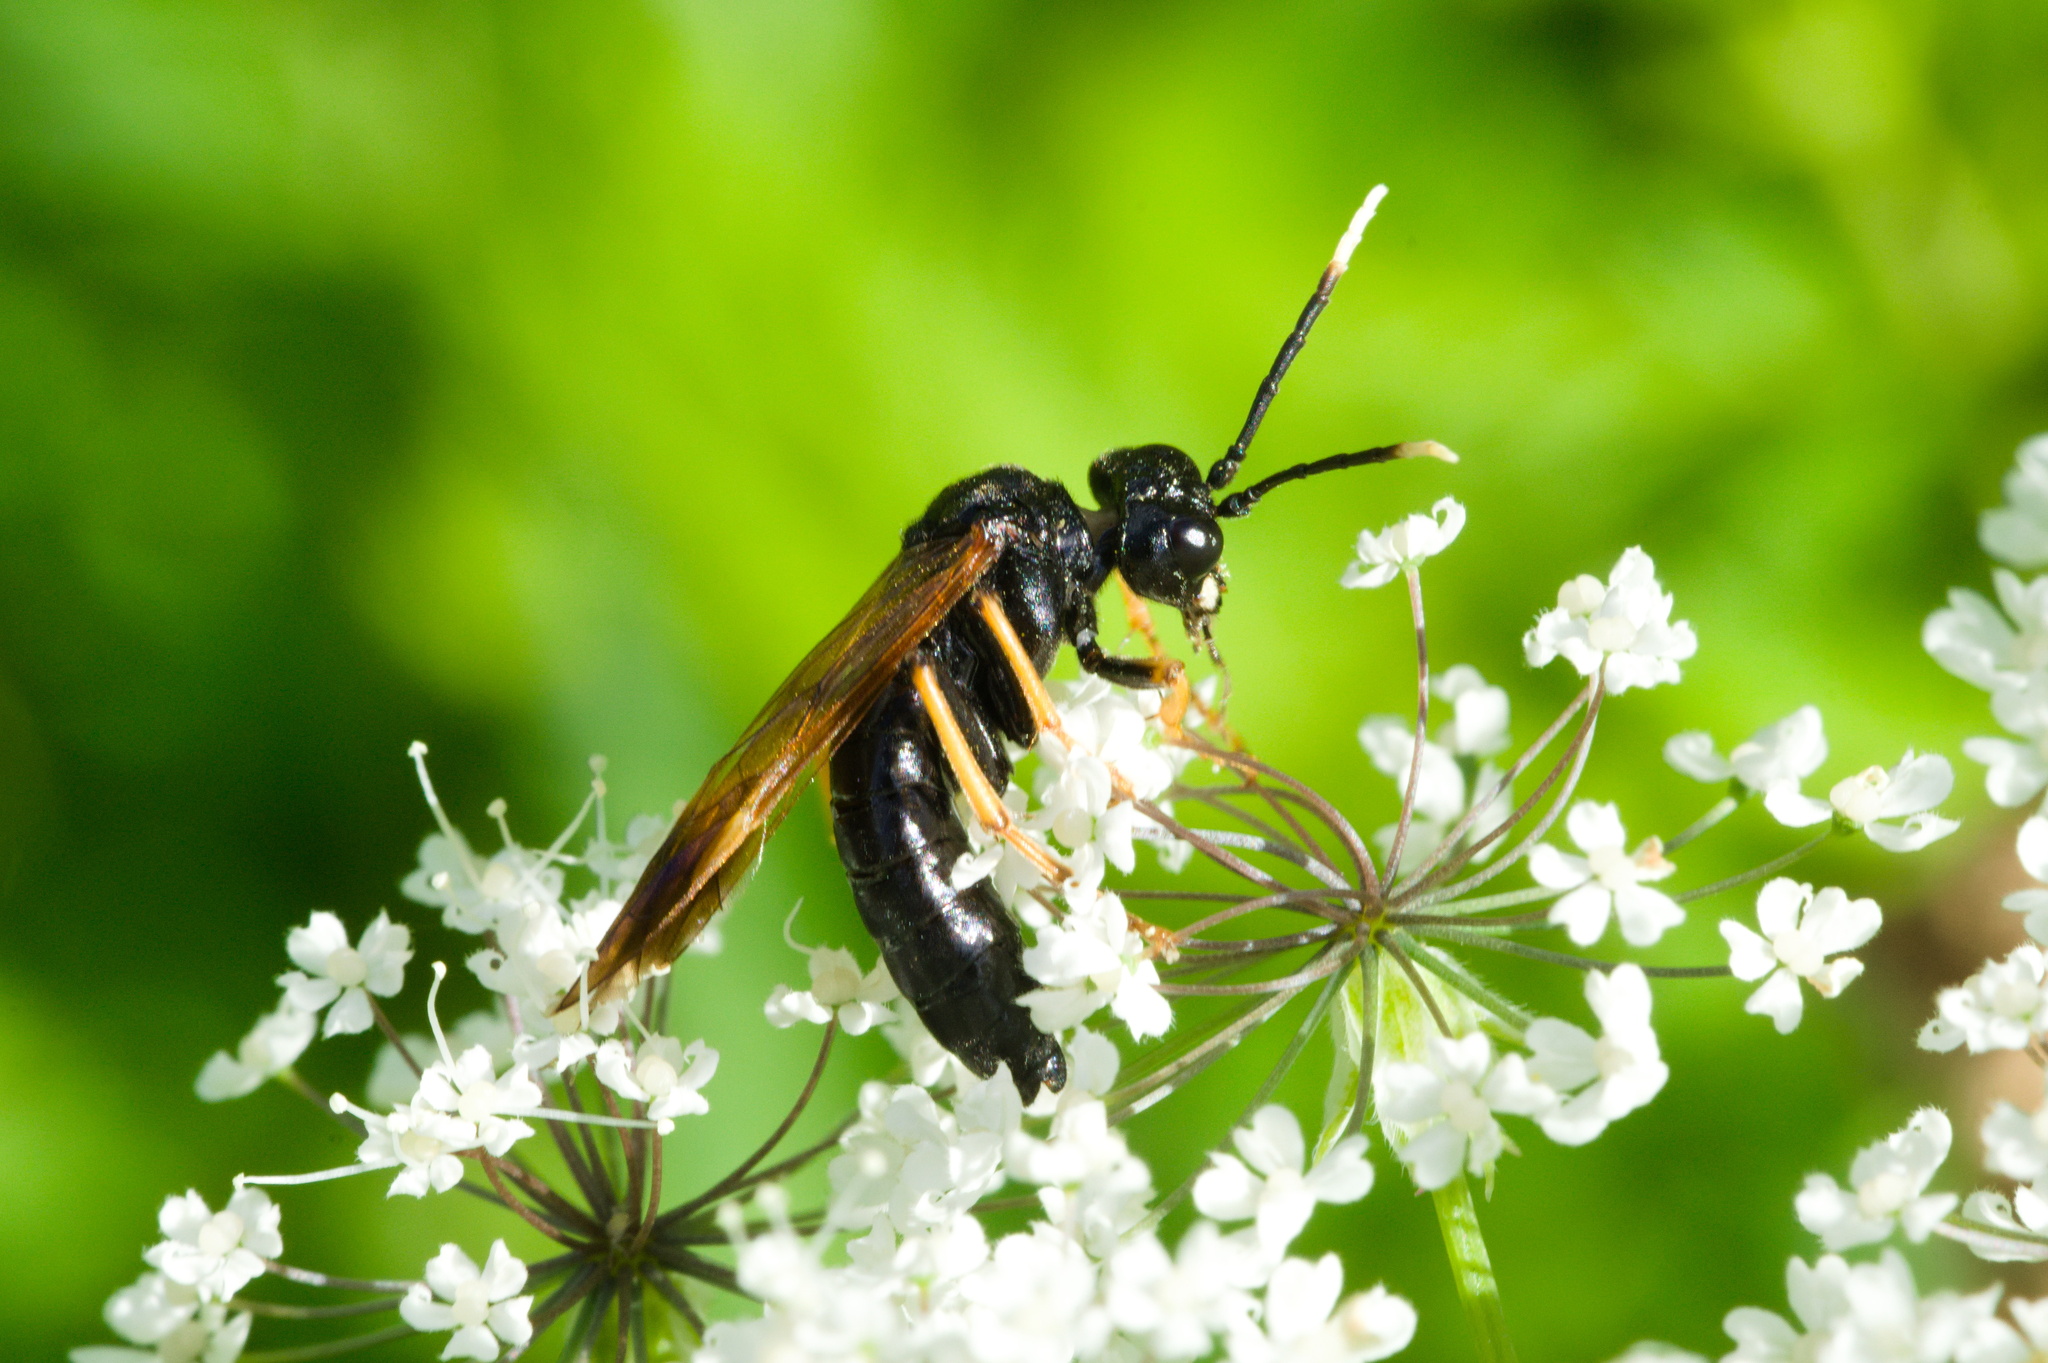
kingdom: Animalia
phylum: Arthropoda
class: Insecta
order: Hymenoptera
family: Tenthredinidae
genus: Tenthredo
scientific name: Tenthredo crassa
